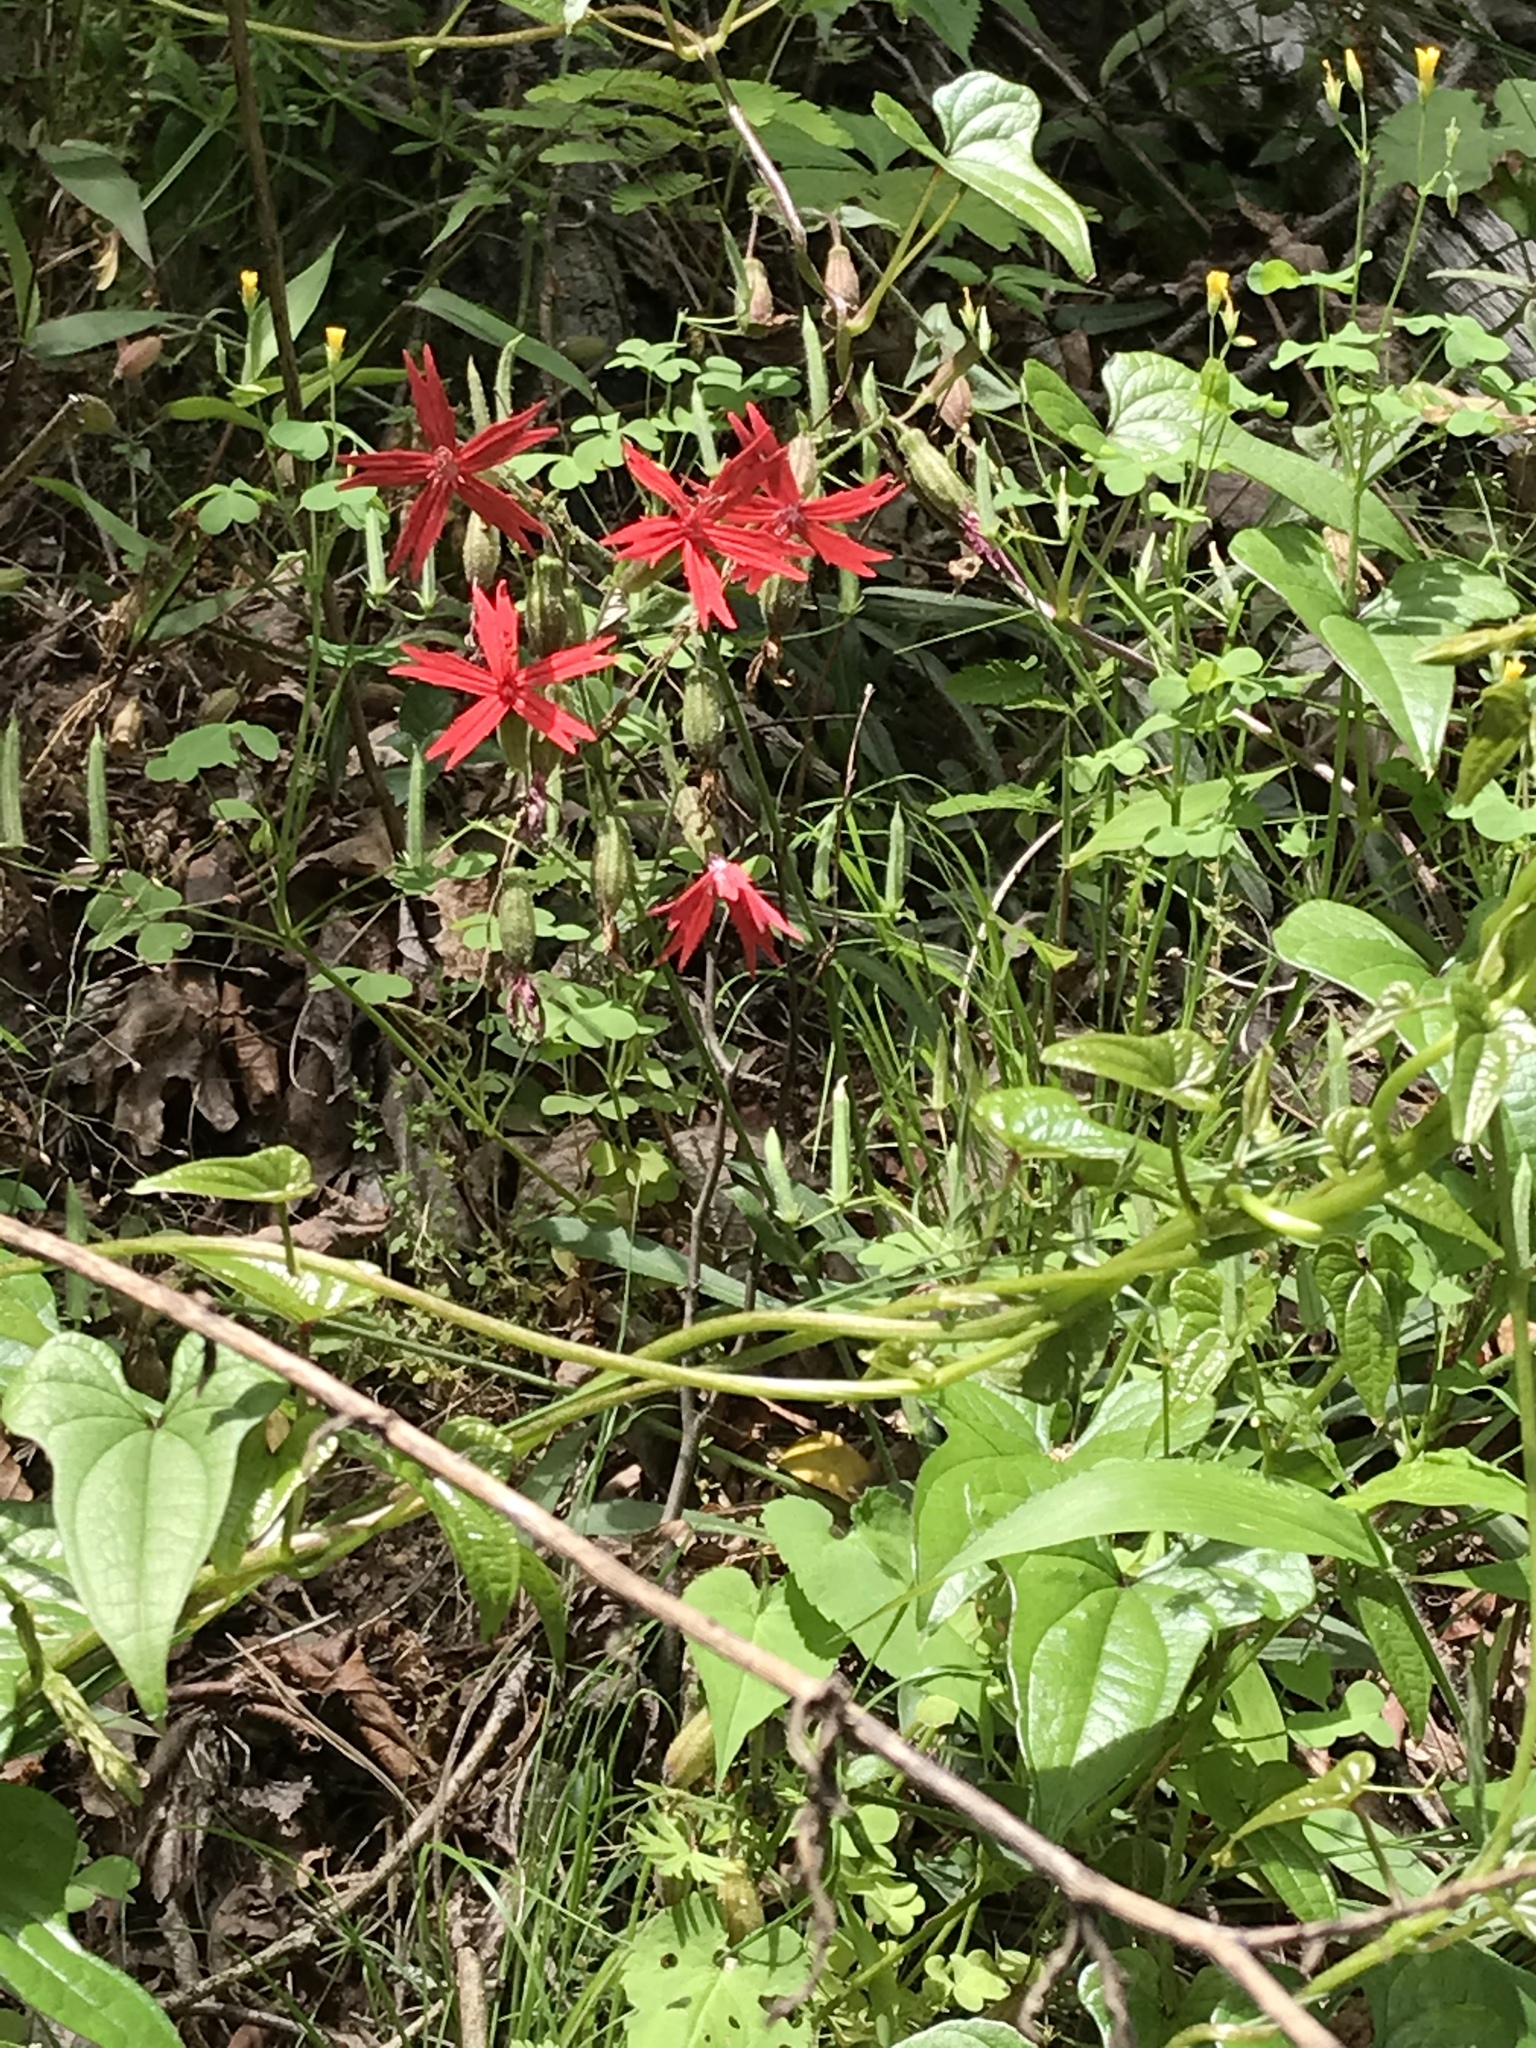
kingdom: Plantae
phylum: Tracheophyta
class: Magnoliopsida
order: Caryophyllales
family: Caryophyllaceae
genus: Silene
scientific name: Silene virginica
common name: Fire-pink
